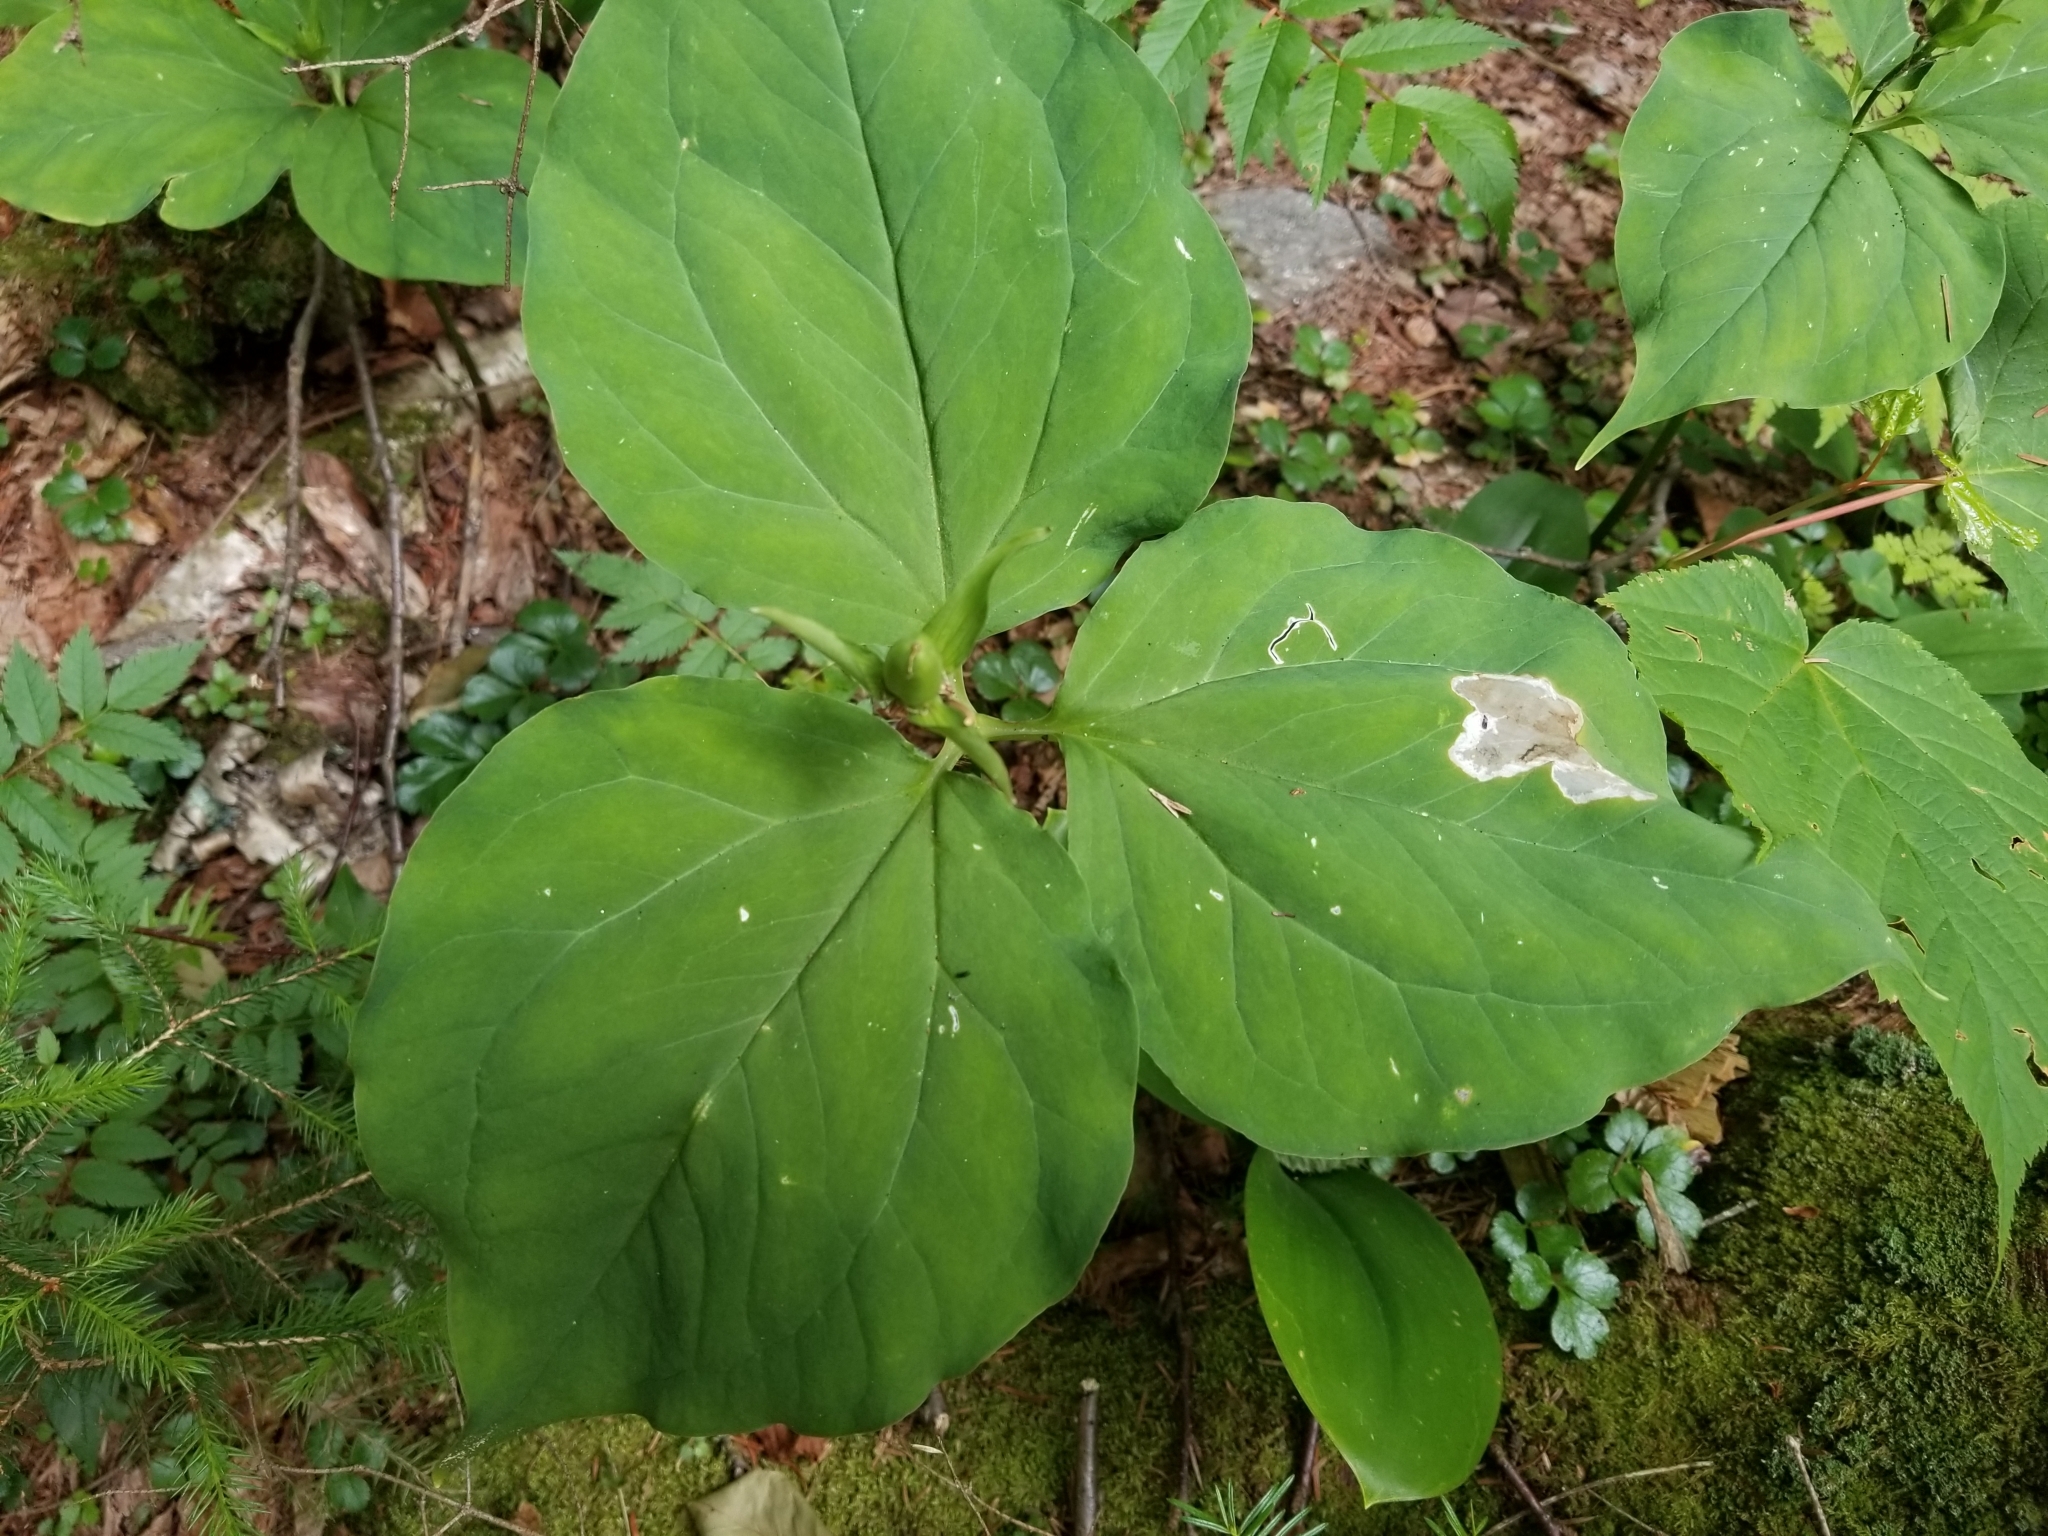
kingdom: Plantae
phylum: Tracheophyta
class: Liliopsida
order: Liliales
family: Melanthiaceae
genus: Trillium
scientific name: Trillium undulatum
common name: Paint trillium
